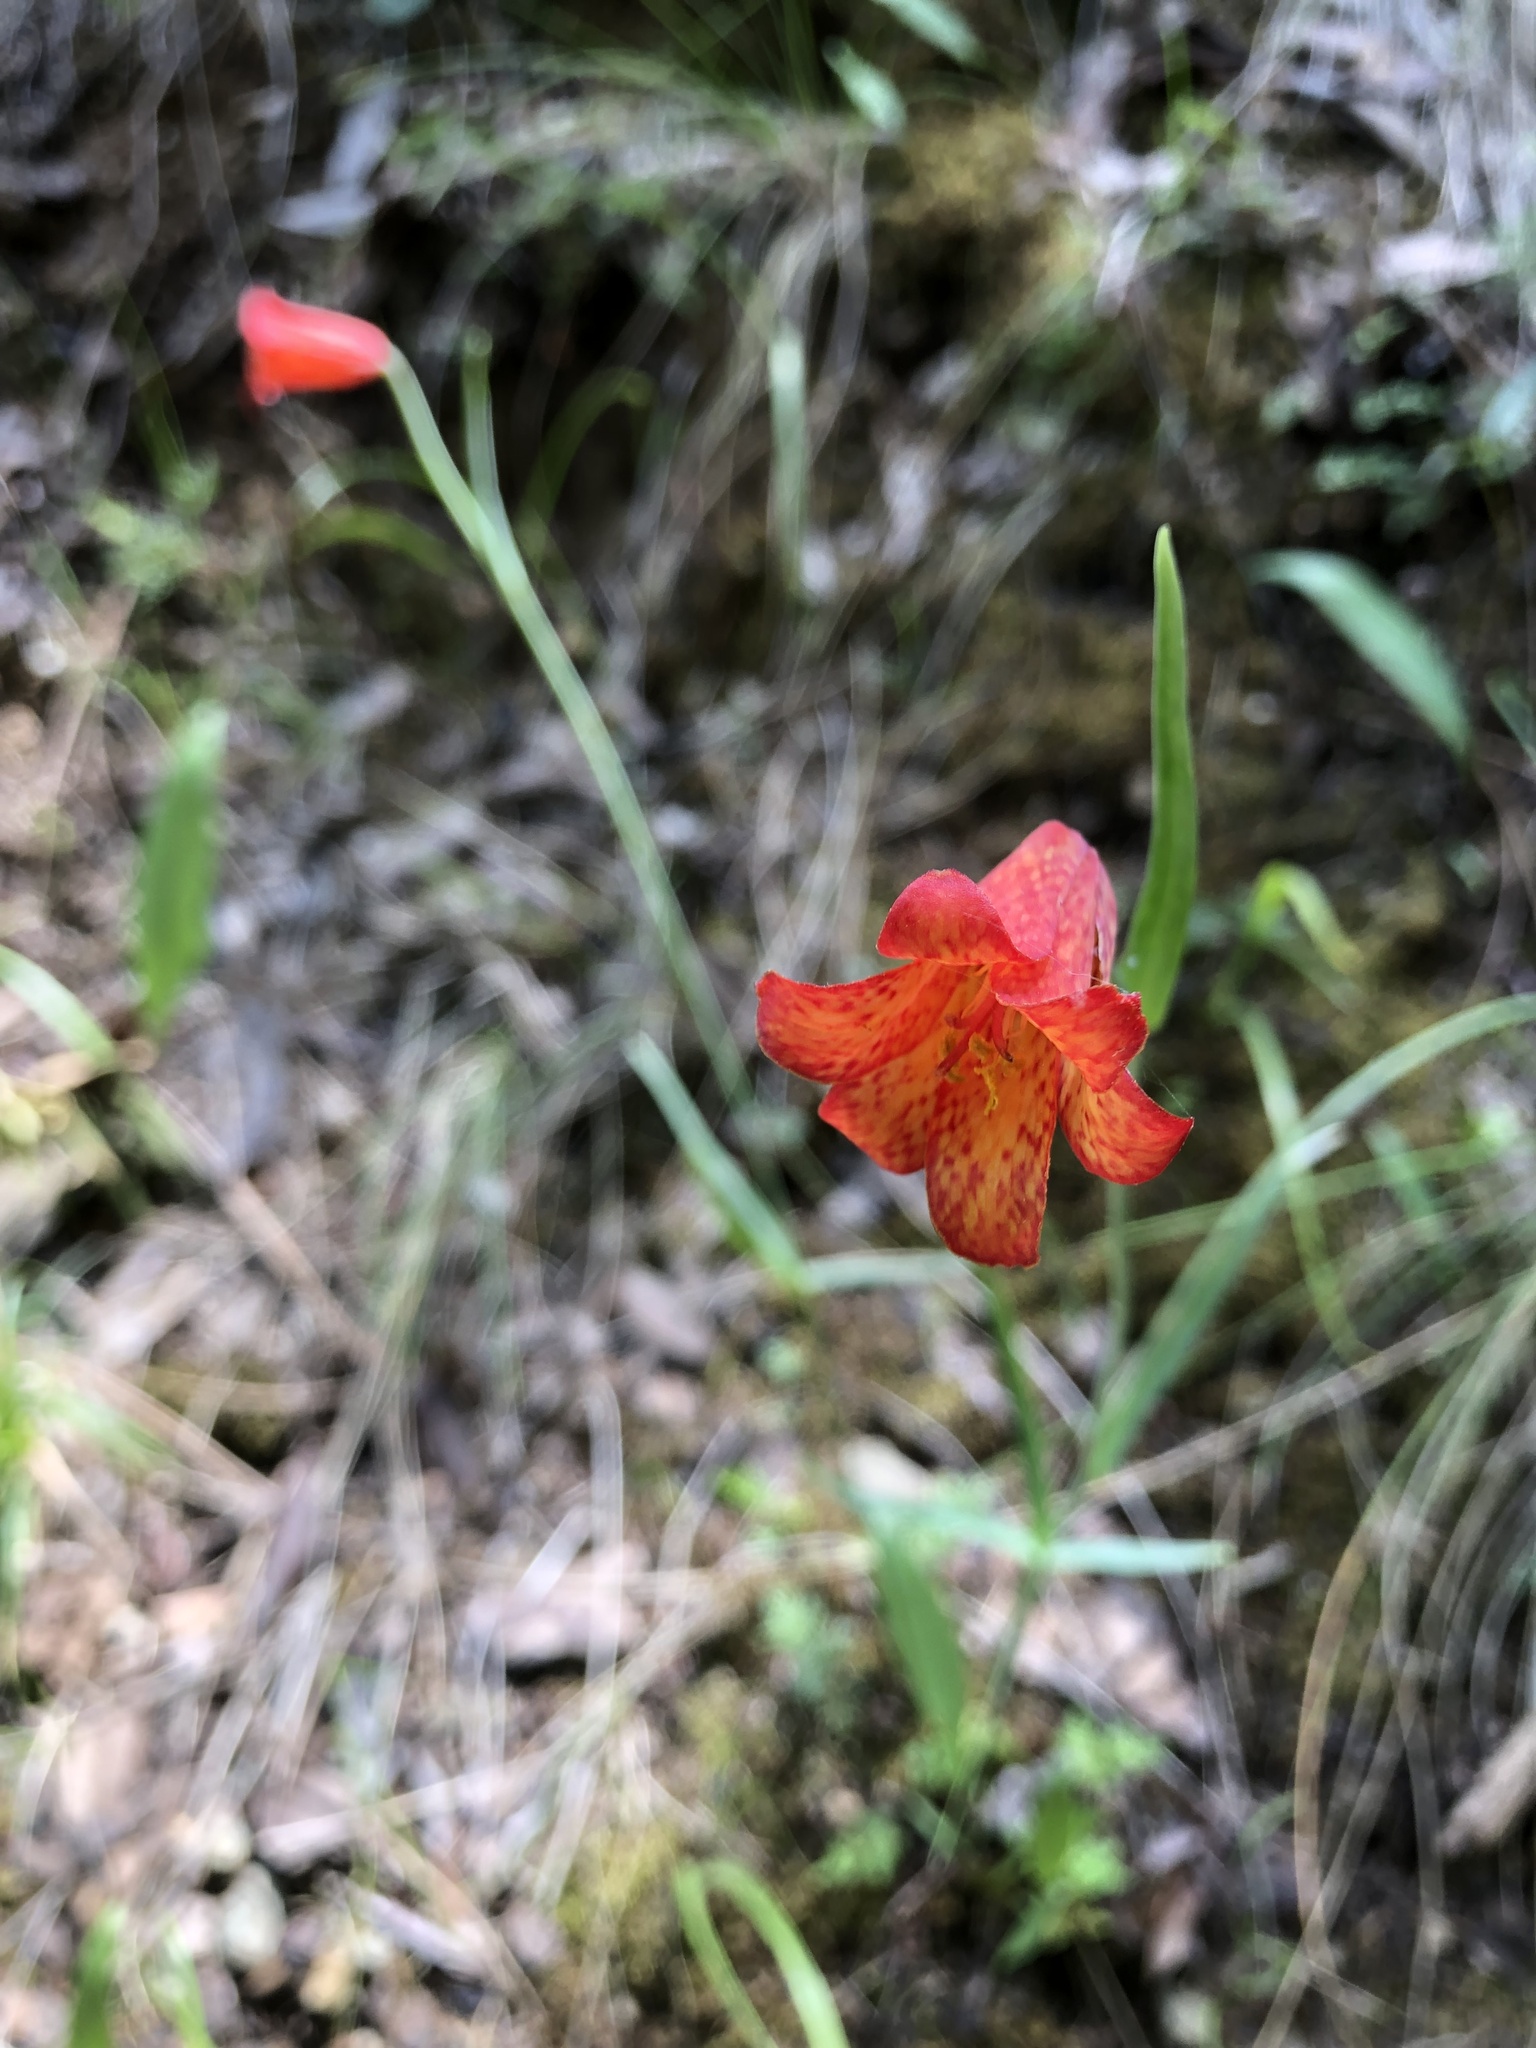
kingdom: Plantae
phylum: Tracheophyta
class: Liliopsida
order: Liliales
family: Liliaceae
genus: Fritillaria
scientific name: Fritillaria recurva
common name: Scarlet fritillary
